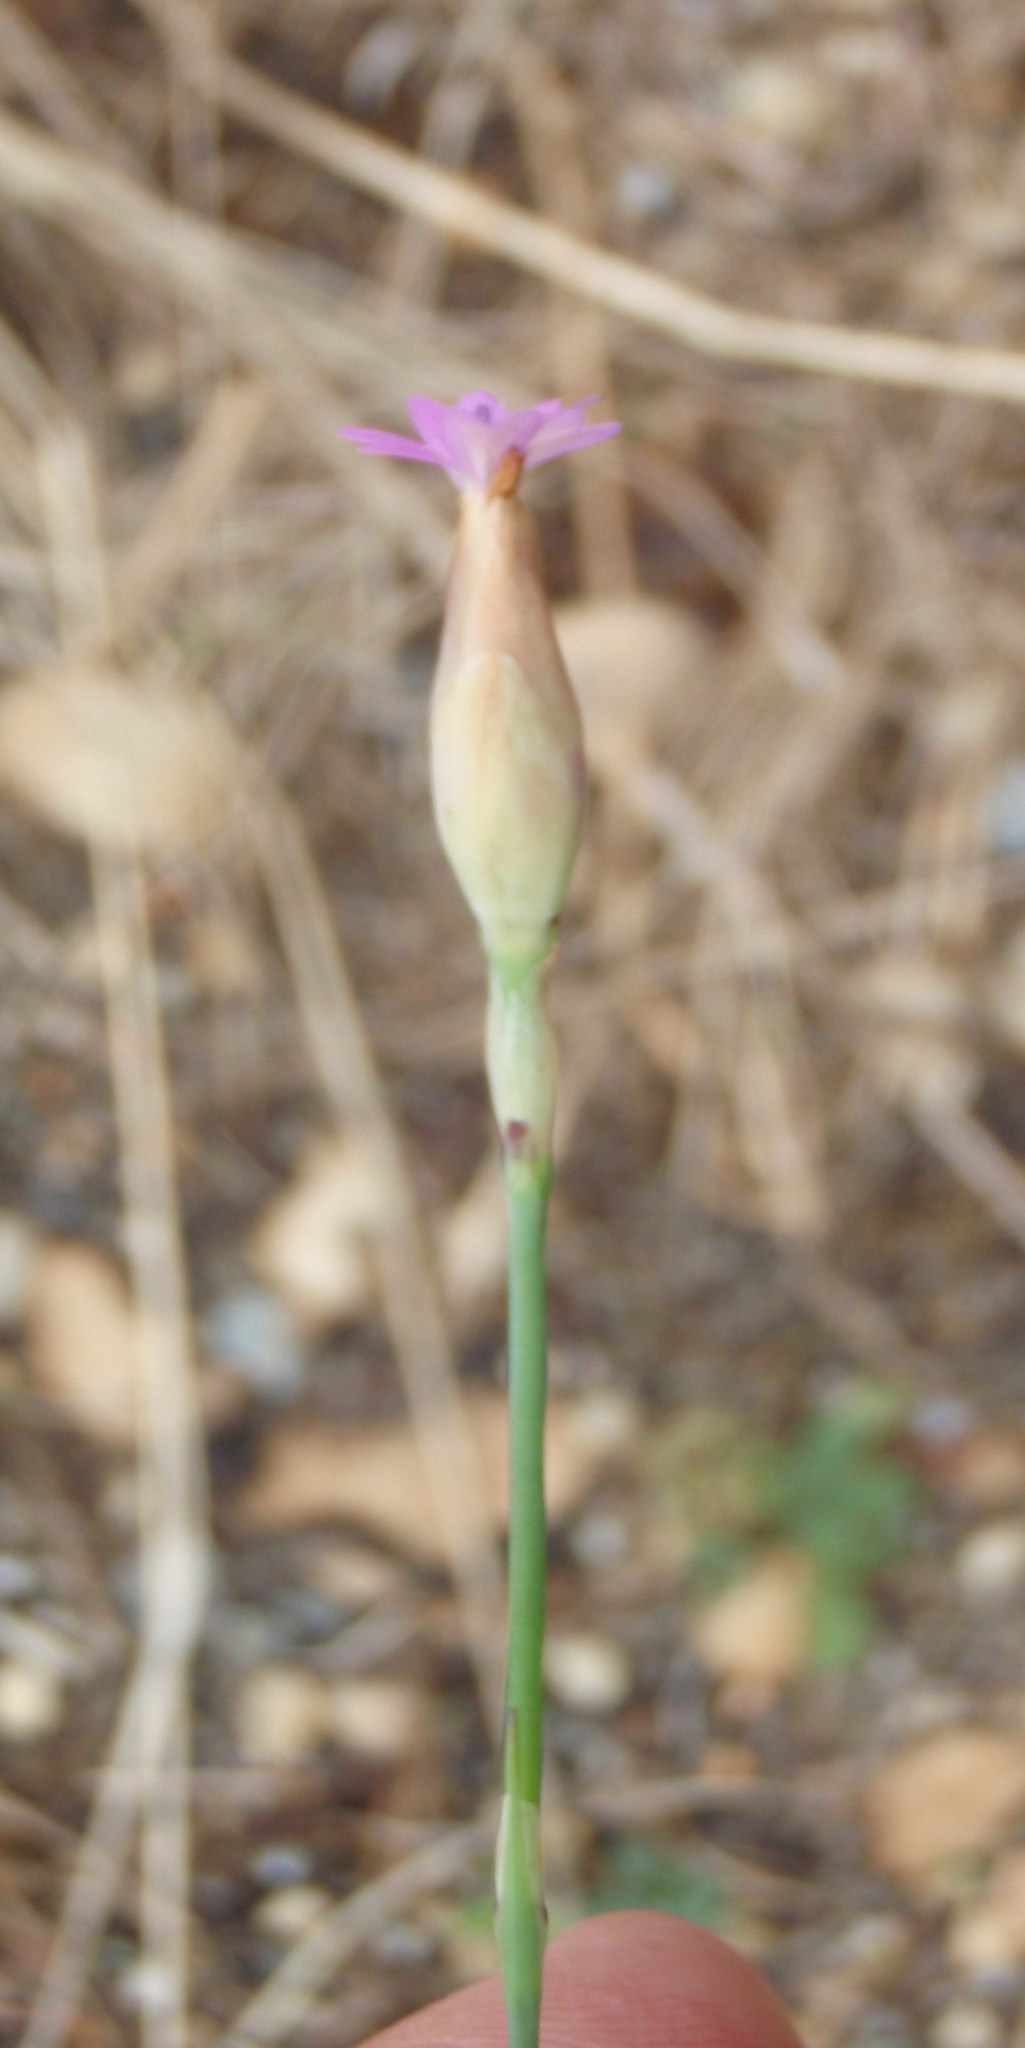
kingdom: Plantae
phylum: Tracheophyta
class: Magnoliopsida
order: Caryophyllales
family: Caryophyllaceae
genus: Petrorhagia
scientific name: Petrorhagia dubia
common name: Hairypink
